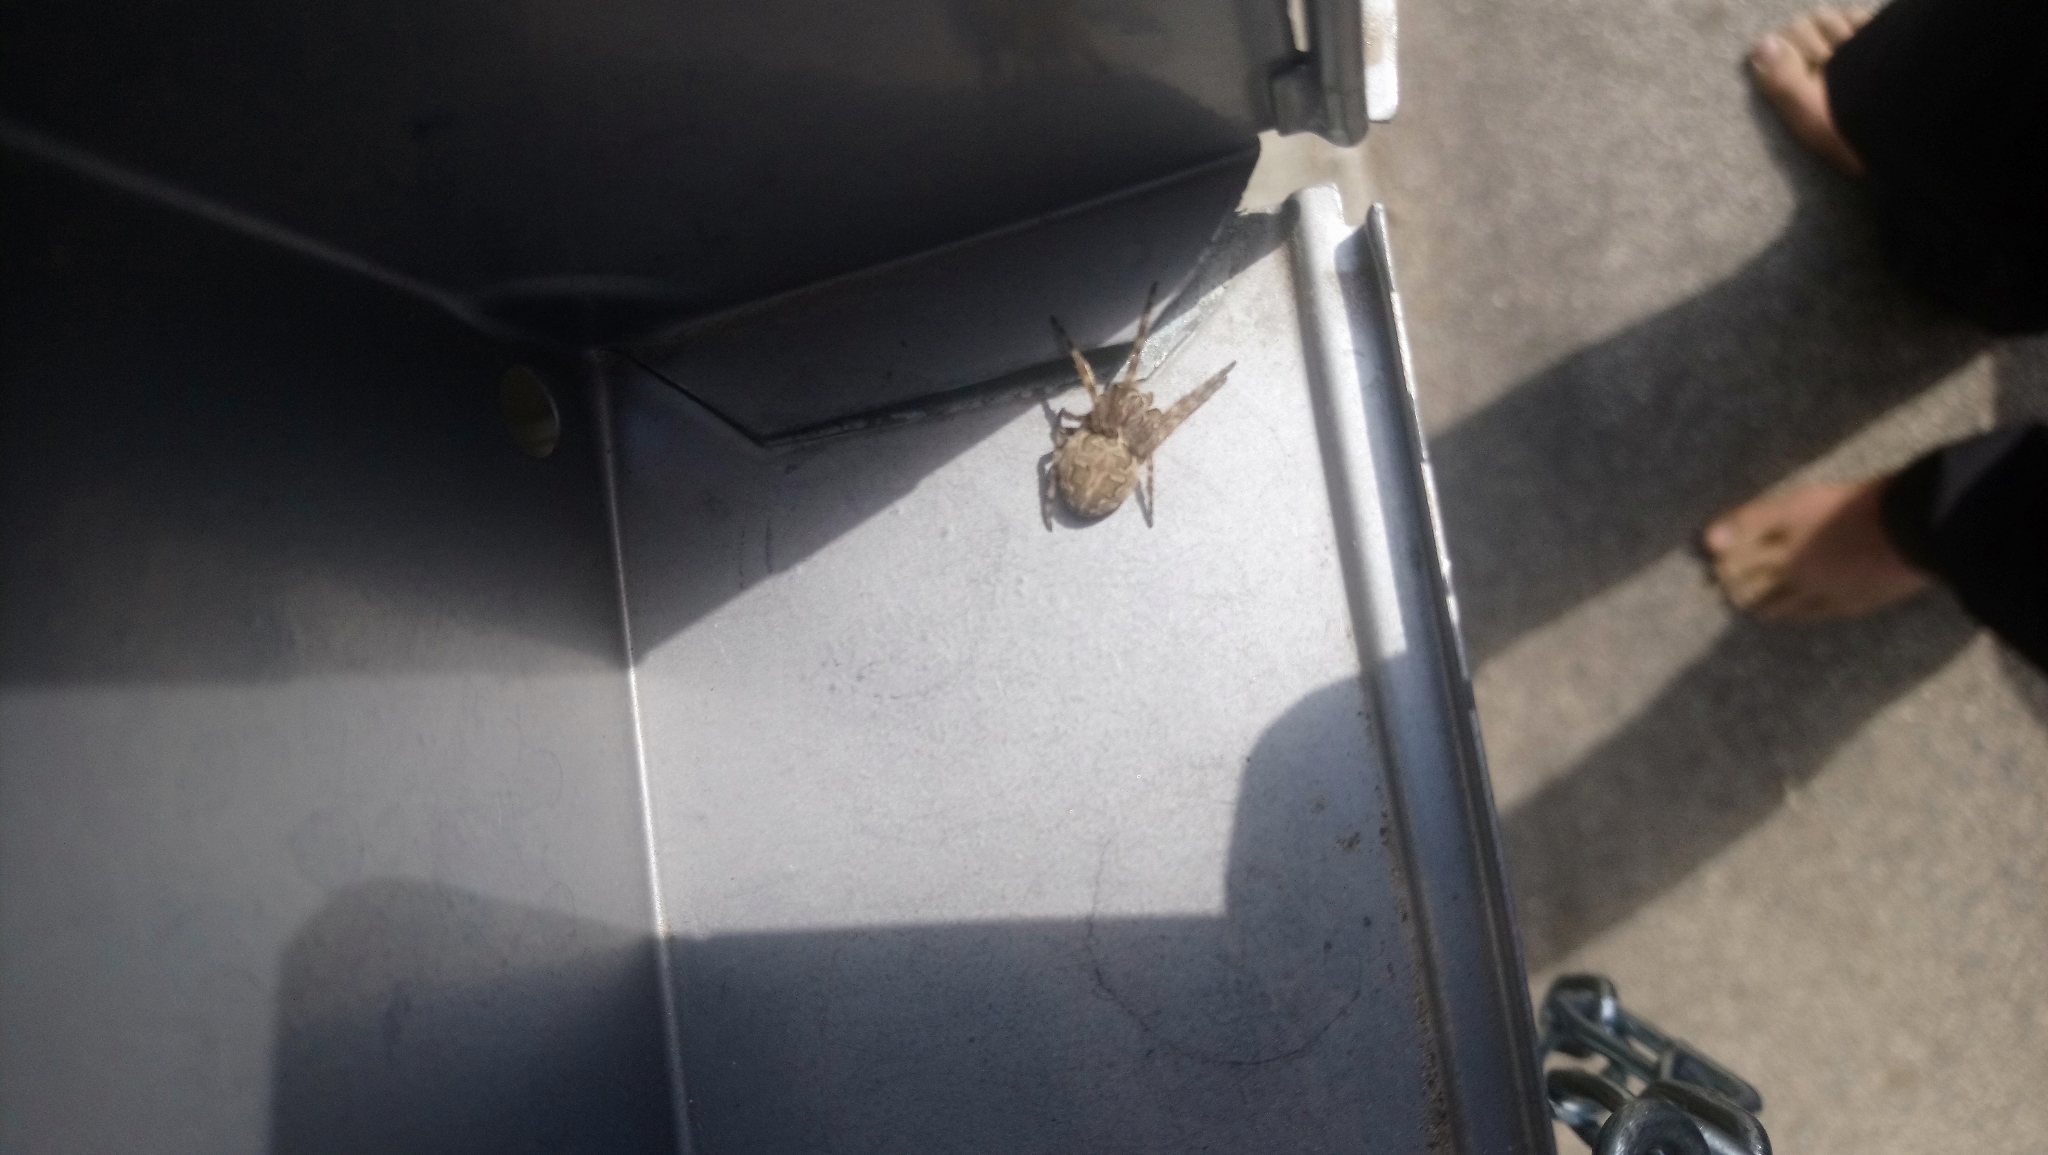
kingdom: Animalia
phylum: Arthropoda
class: Arachnida
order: Araneae
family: Araneidae
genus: Larinioides
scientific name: Larinioides sclopetarius
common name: Bridge orbweaver
